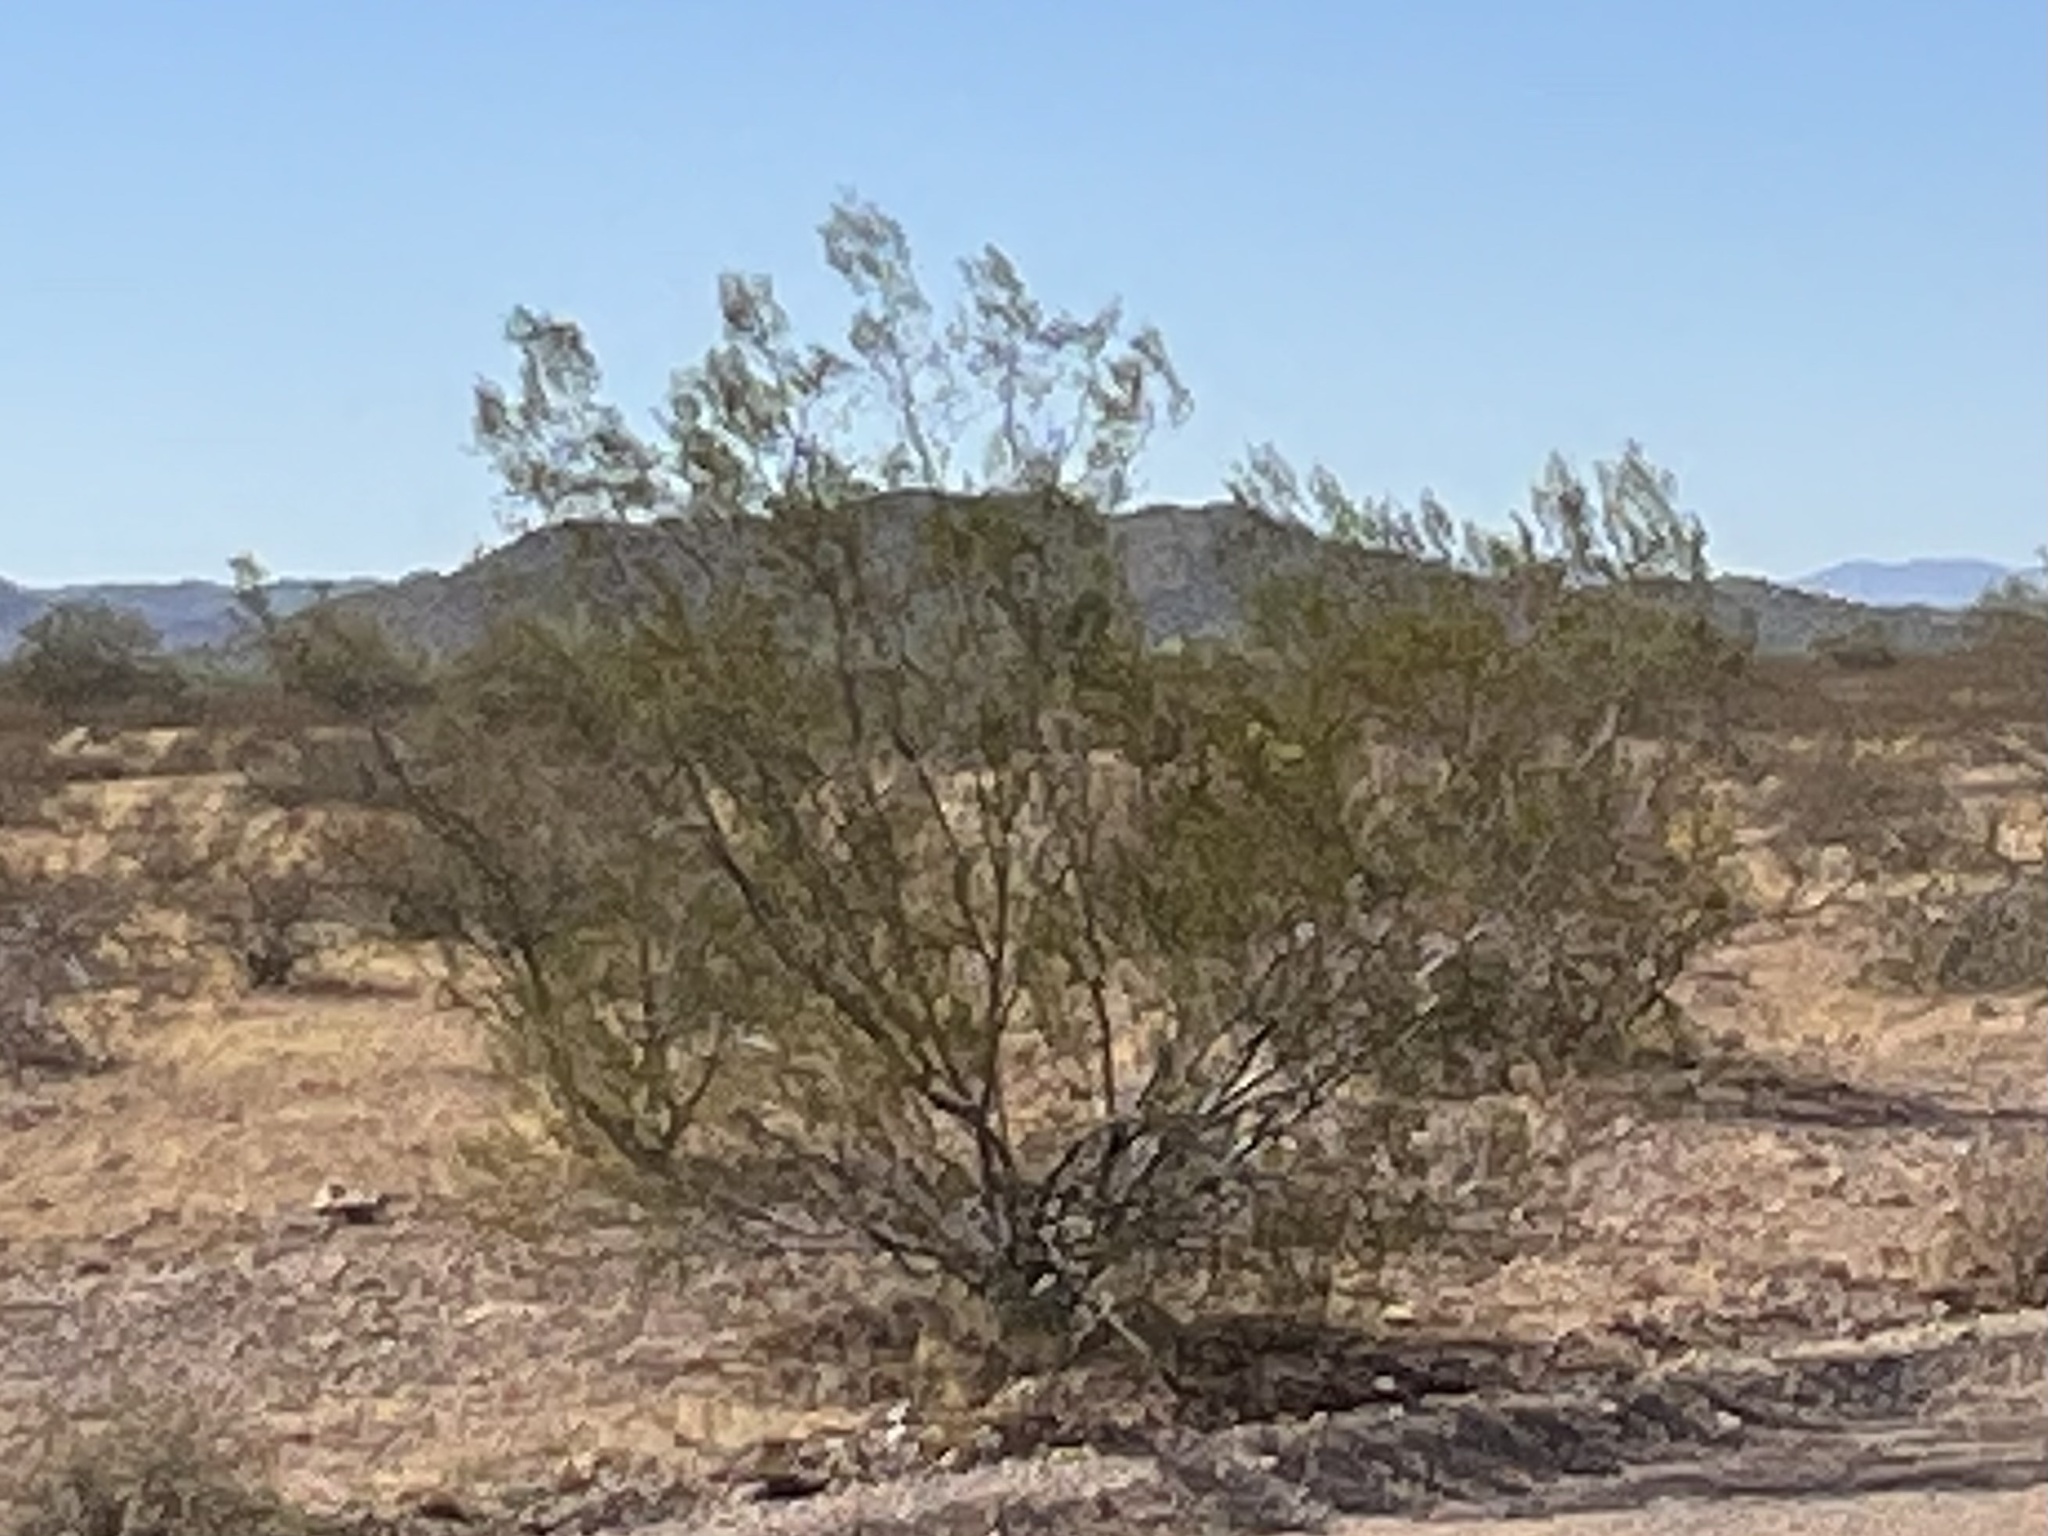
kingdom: Plantae
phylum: Tracheophyta
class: Magnoliopsida
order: Zygophyllales
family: Zygophyllaceae
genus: Larrea
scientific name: Larrea tridentata
